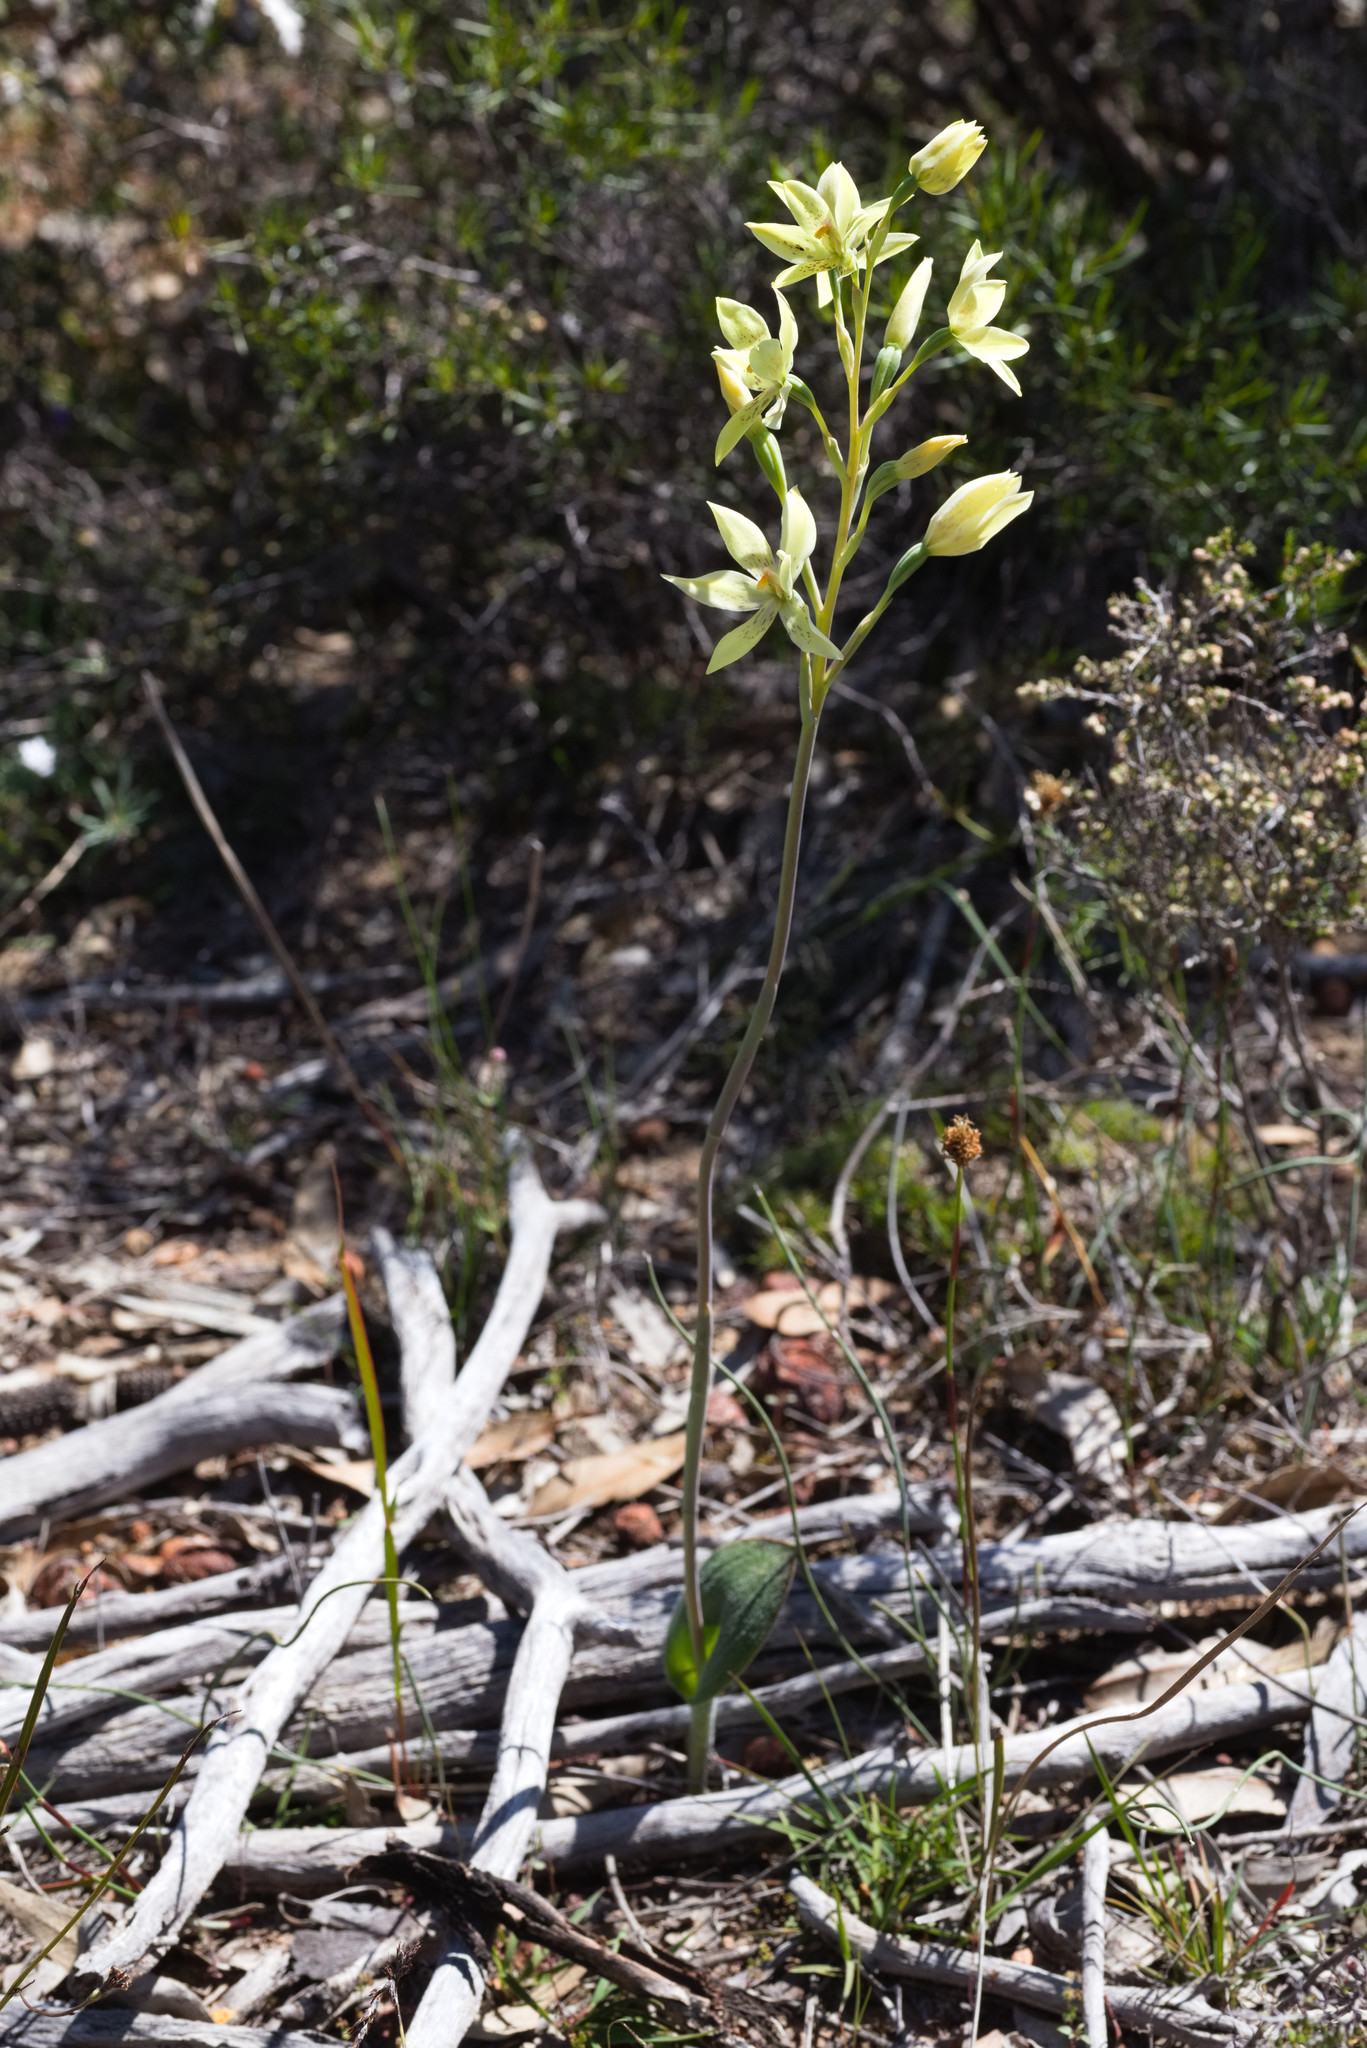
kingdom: Plantae
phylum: Tracheophyta
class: Liliopsida
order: Asparagales
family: Orchidaceae
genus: Thelymitra
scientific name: Thelymitra villosa
